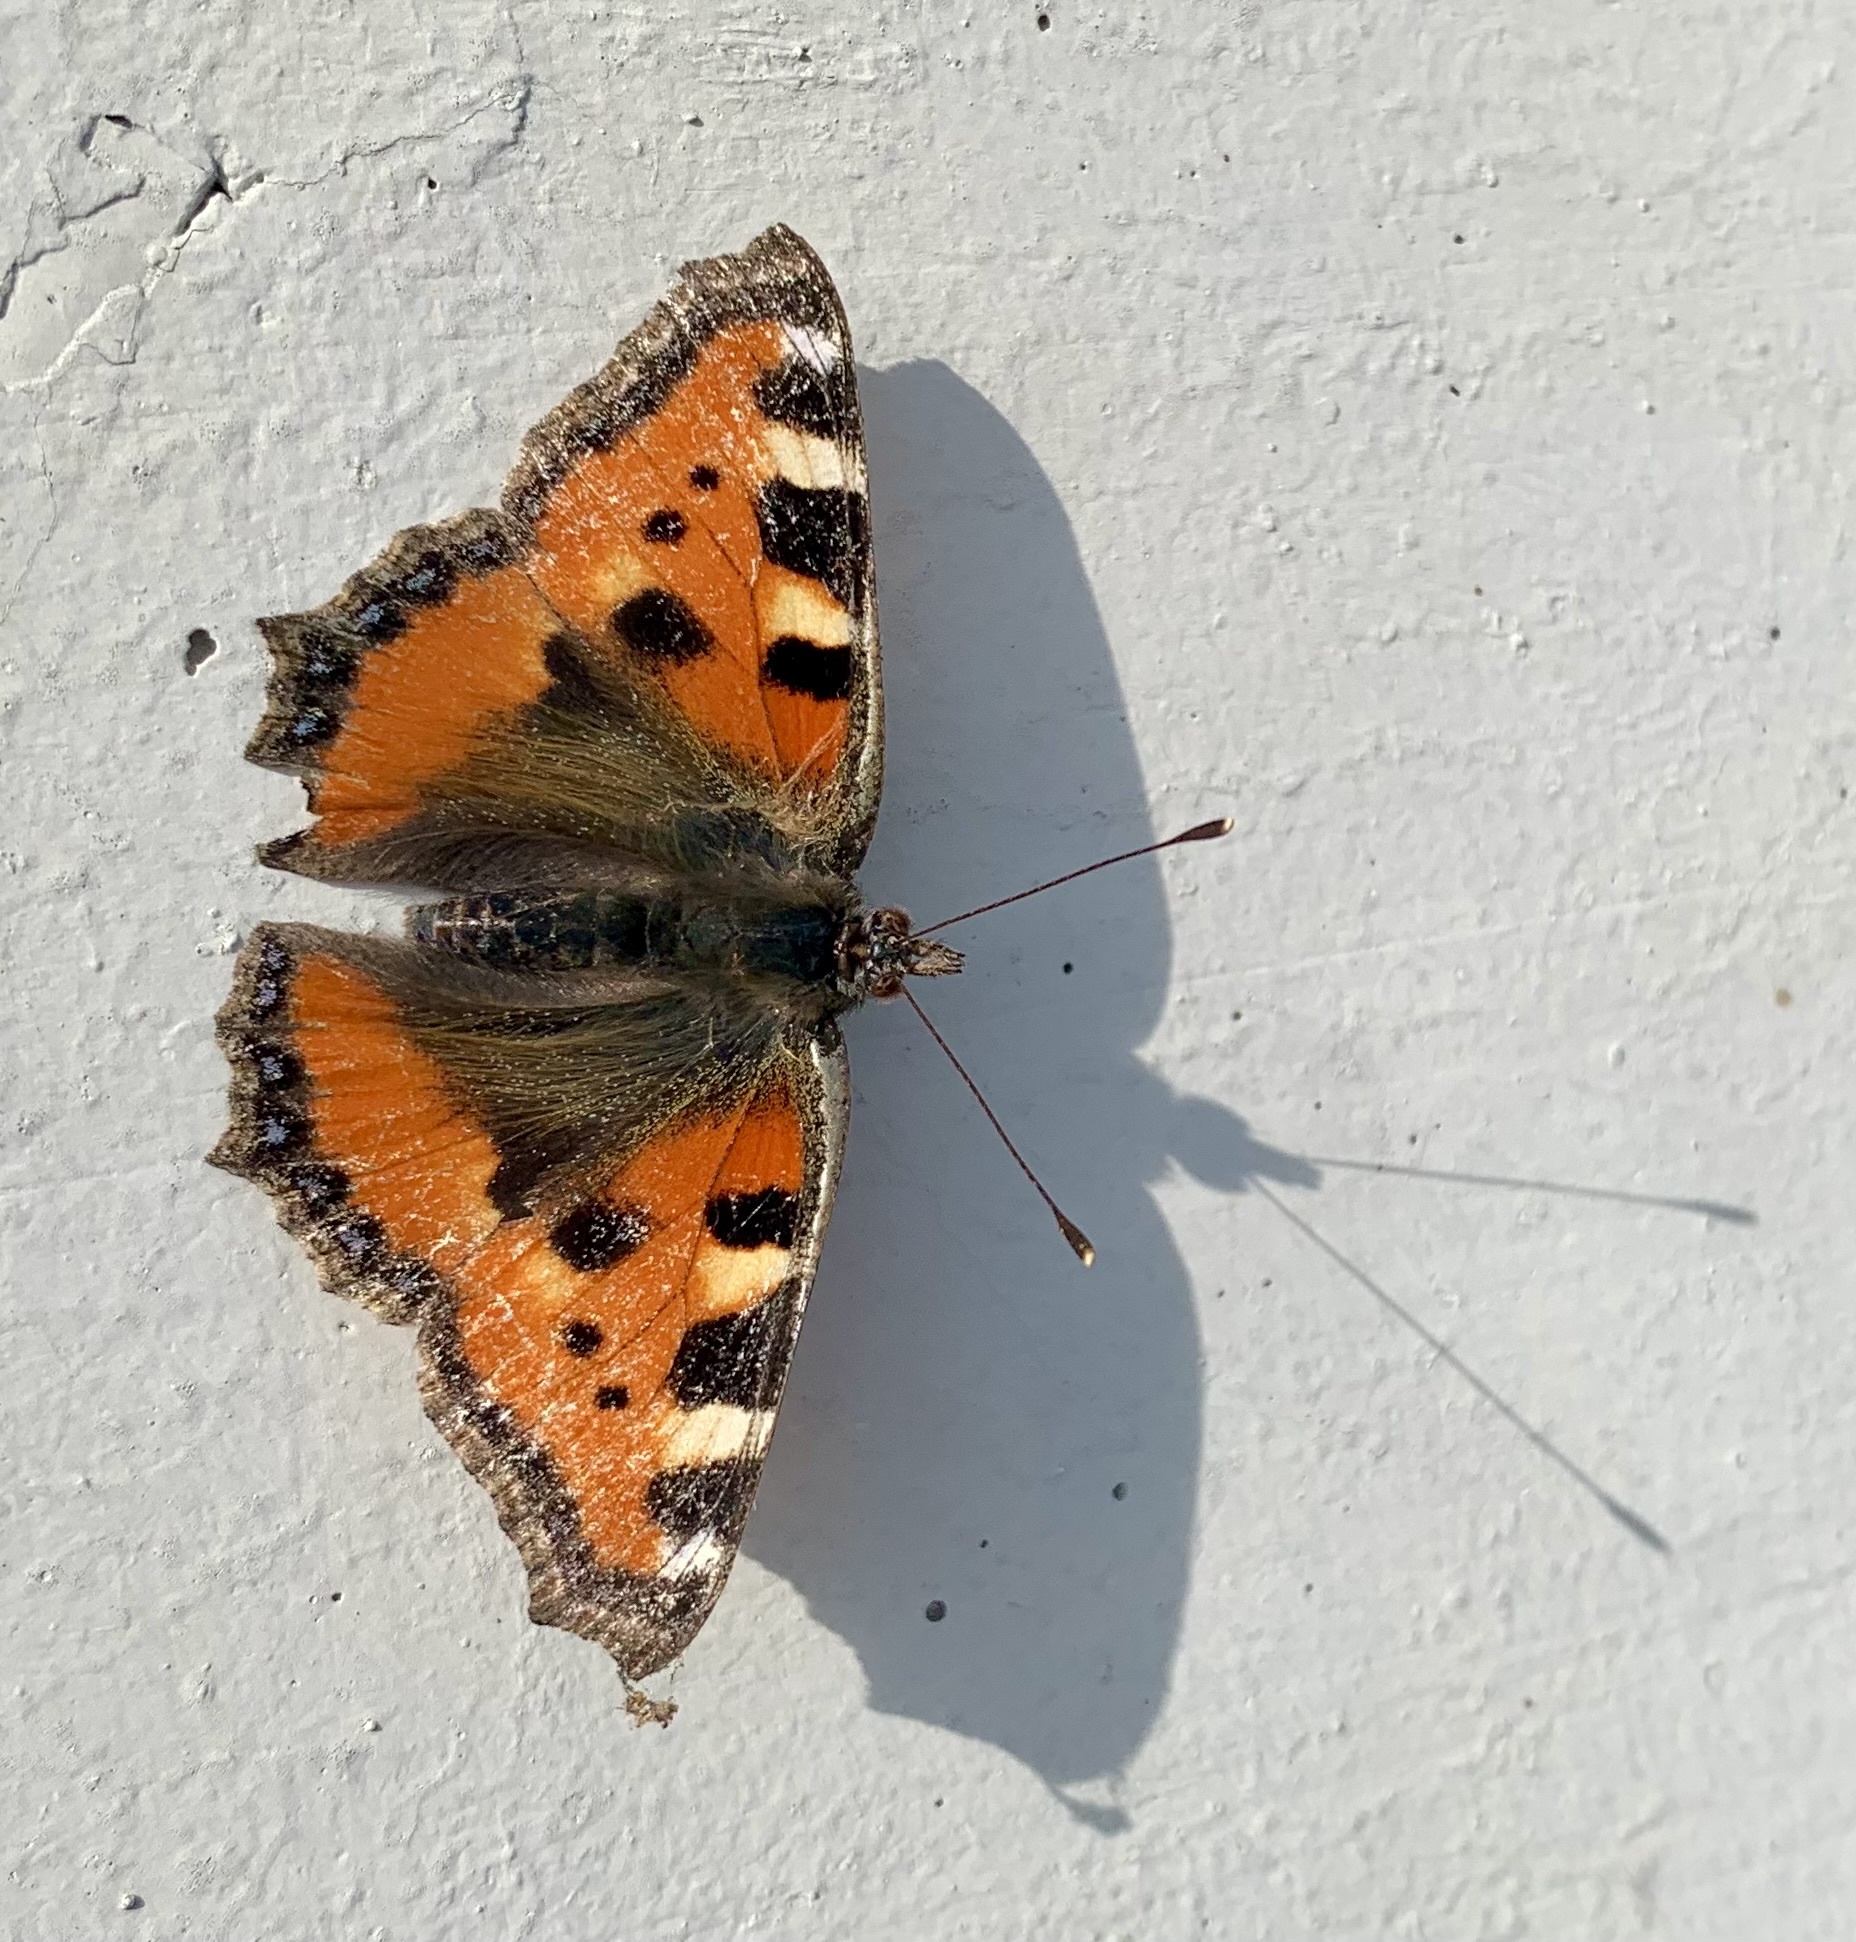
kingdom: Animalia
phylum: Arthropoda
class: Insecta
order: Lepidoptera
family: Nymphalidae
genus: Aglais
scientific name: Aglais urticae
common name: Small tortoiseshell
